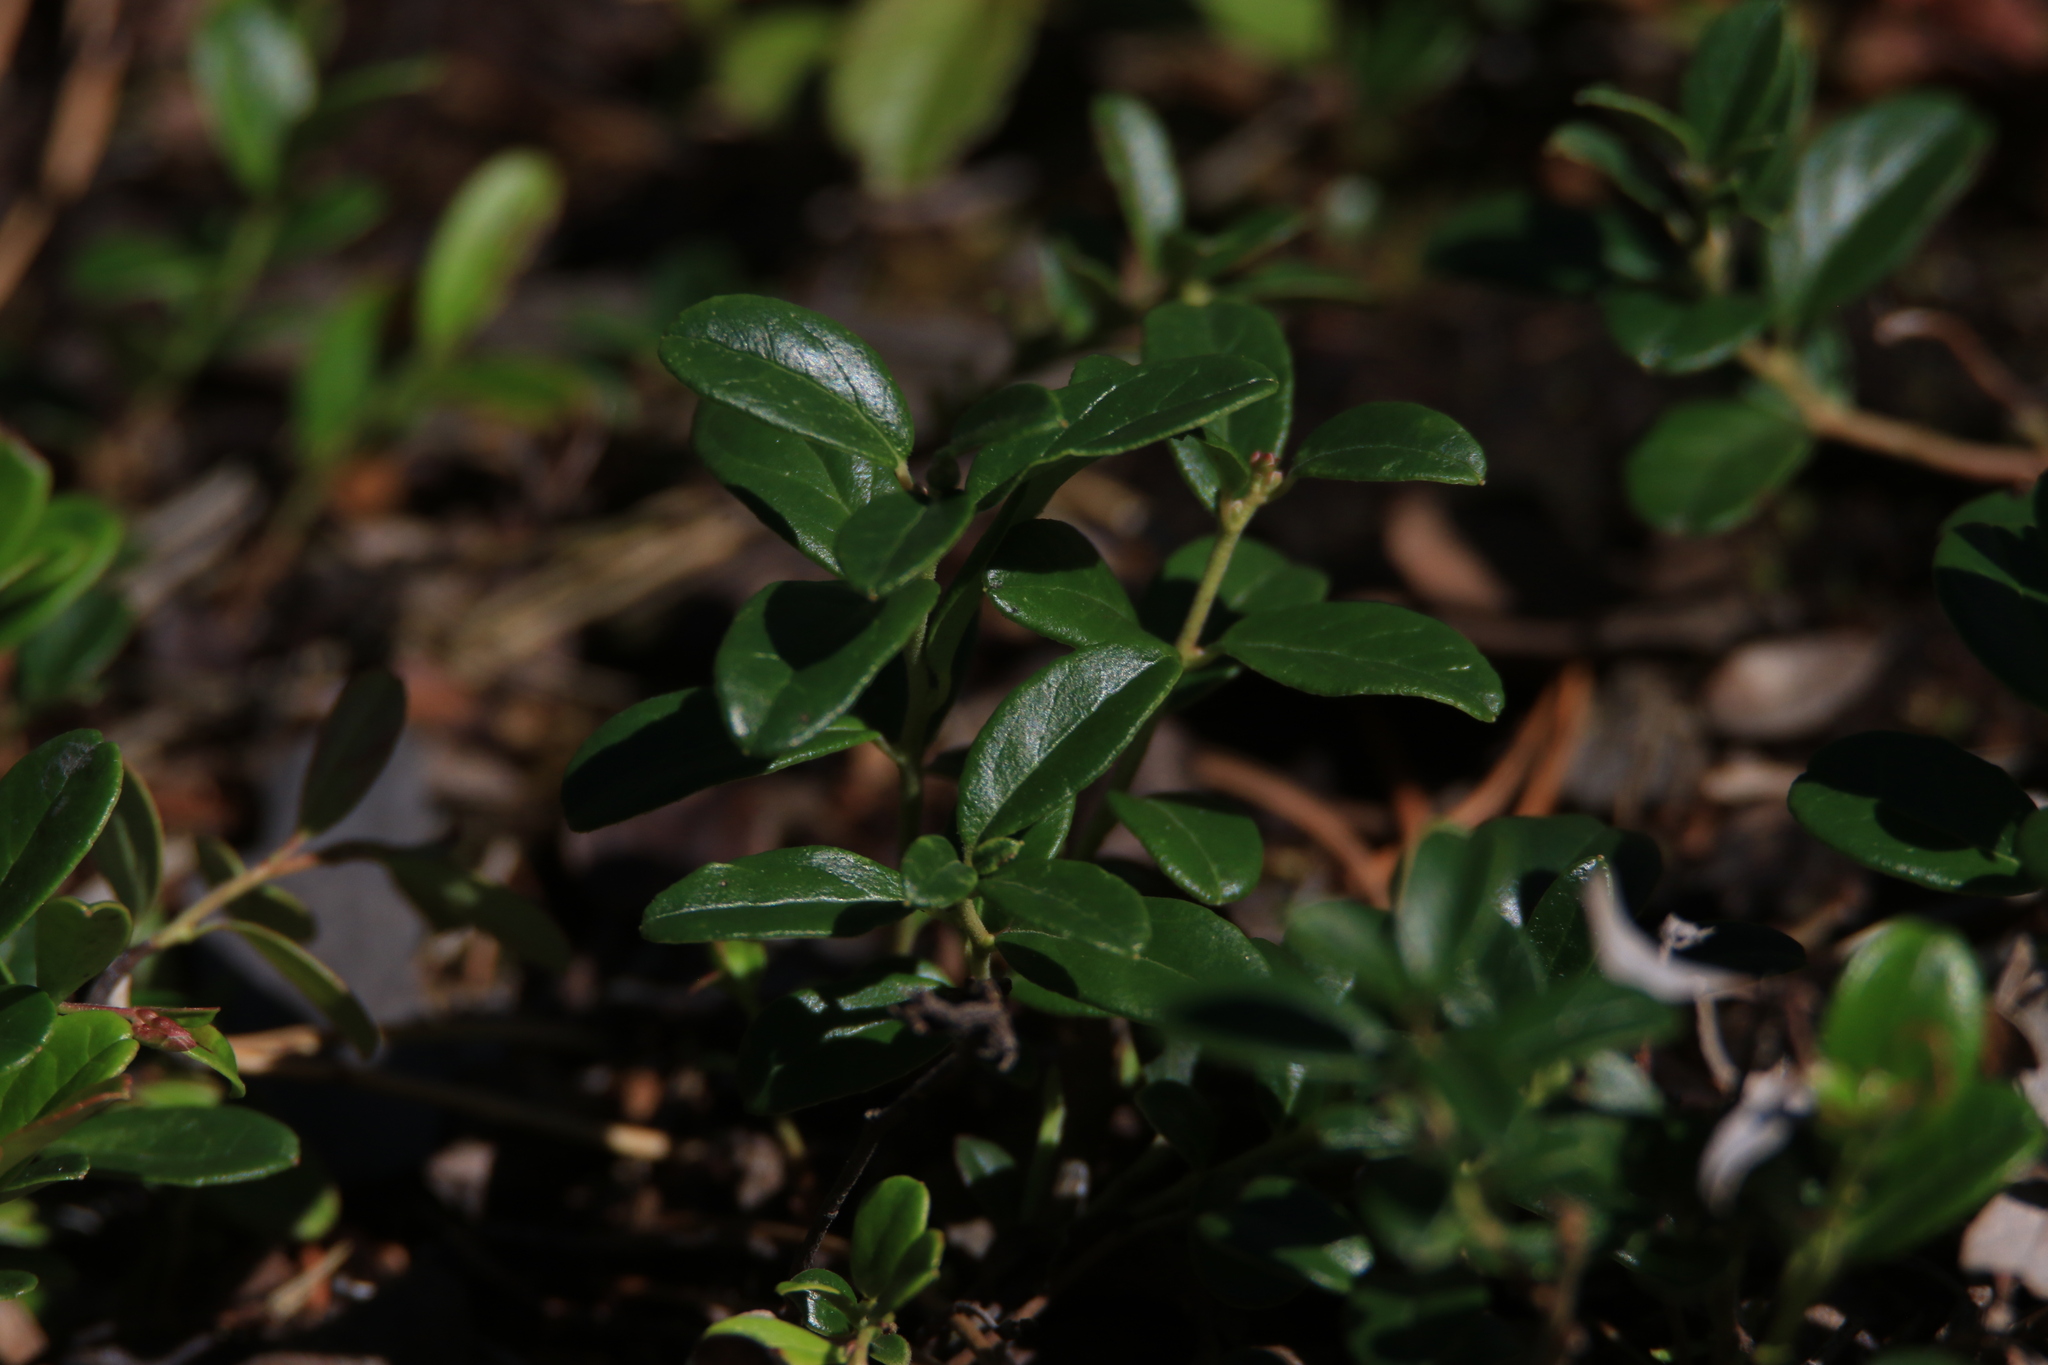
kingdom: Plantae
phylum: Tracheophyta
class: Magnoliopsida
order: Ericales
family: Ericaceae
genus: Vaccinium
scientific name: Vaccinium vitis-idaea
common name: Cowberry
